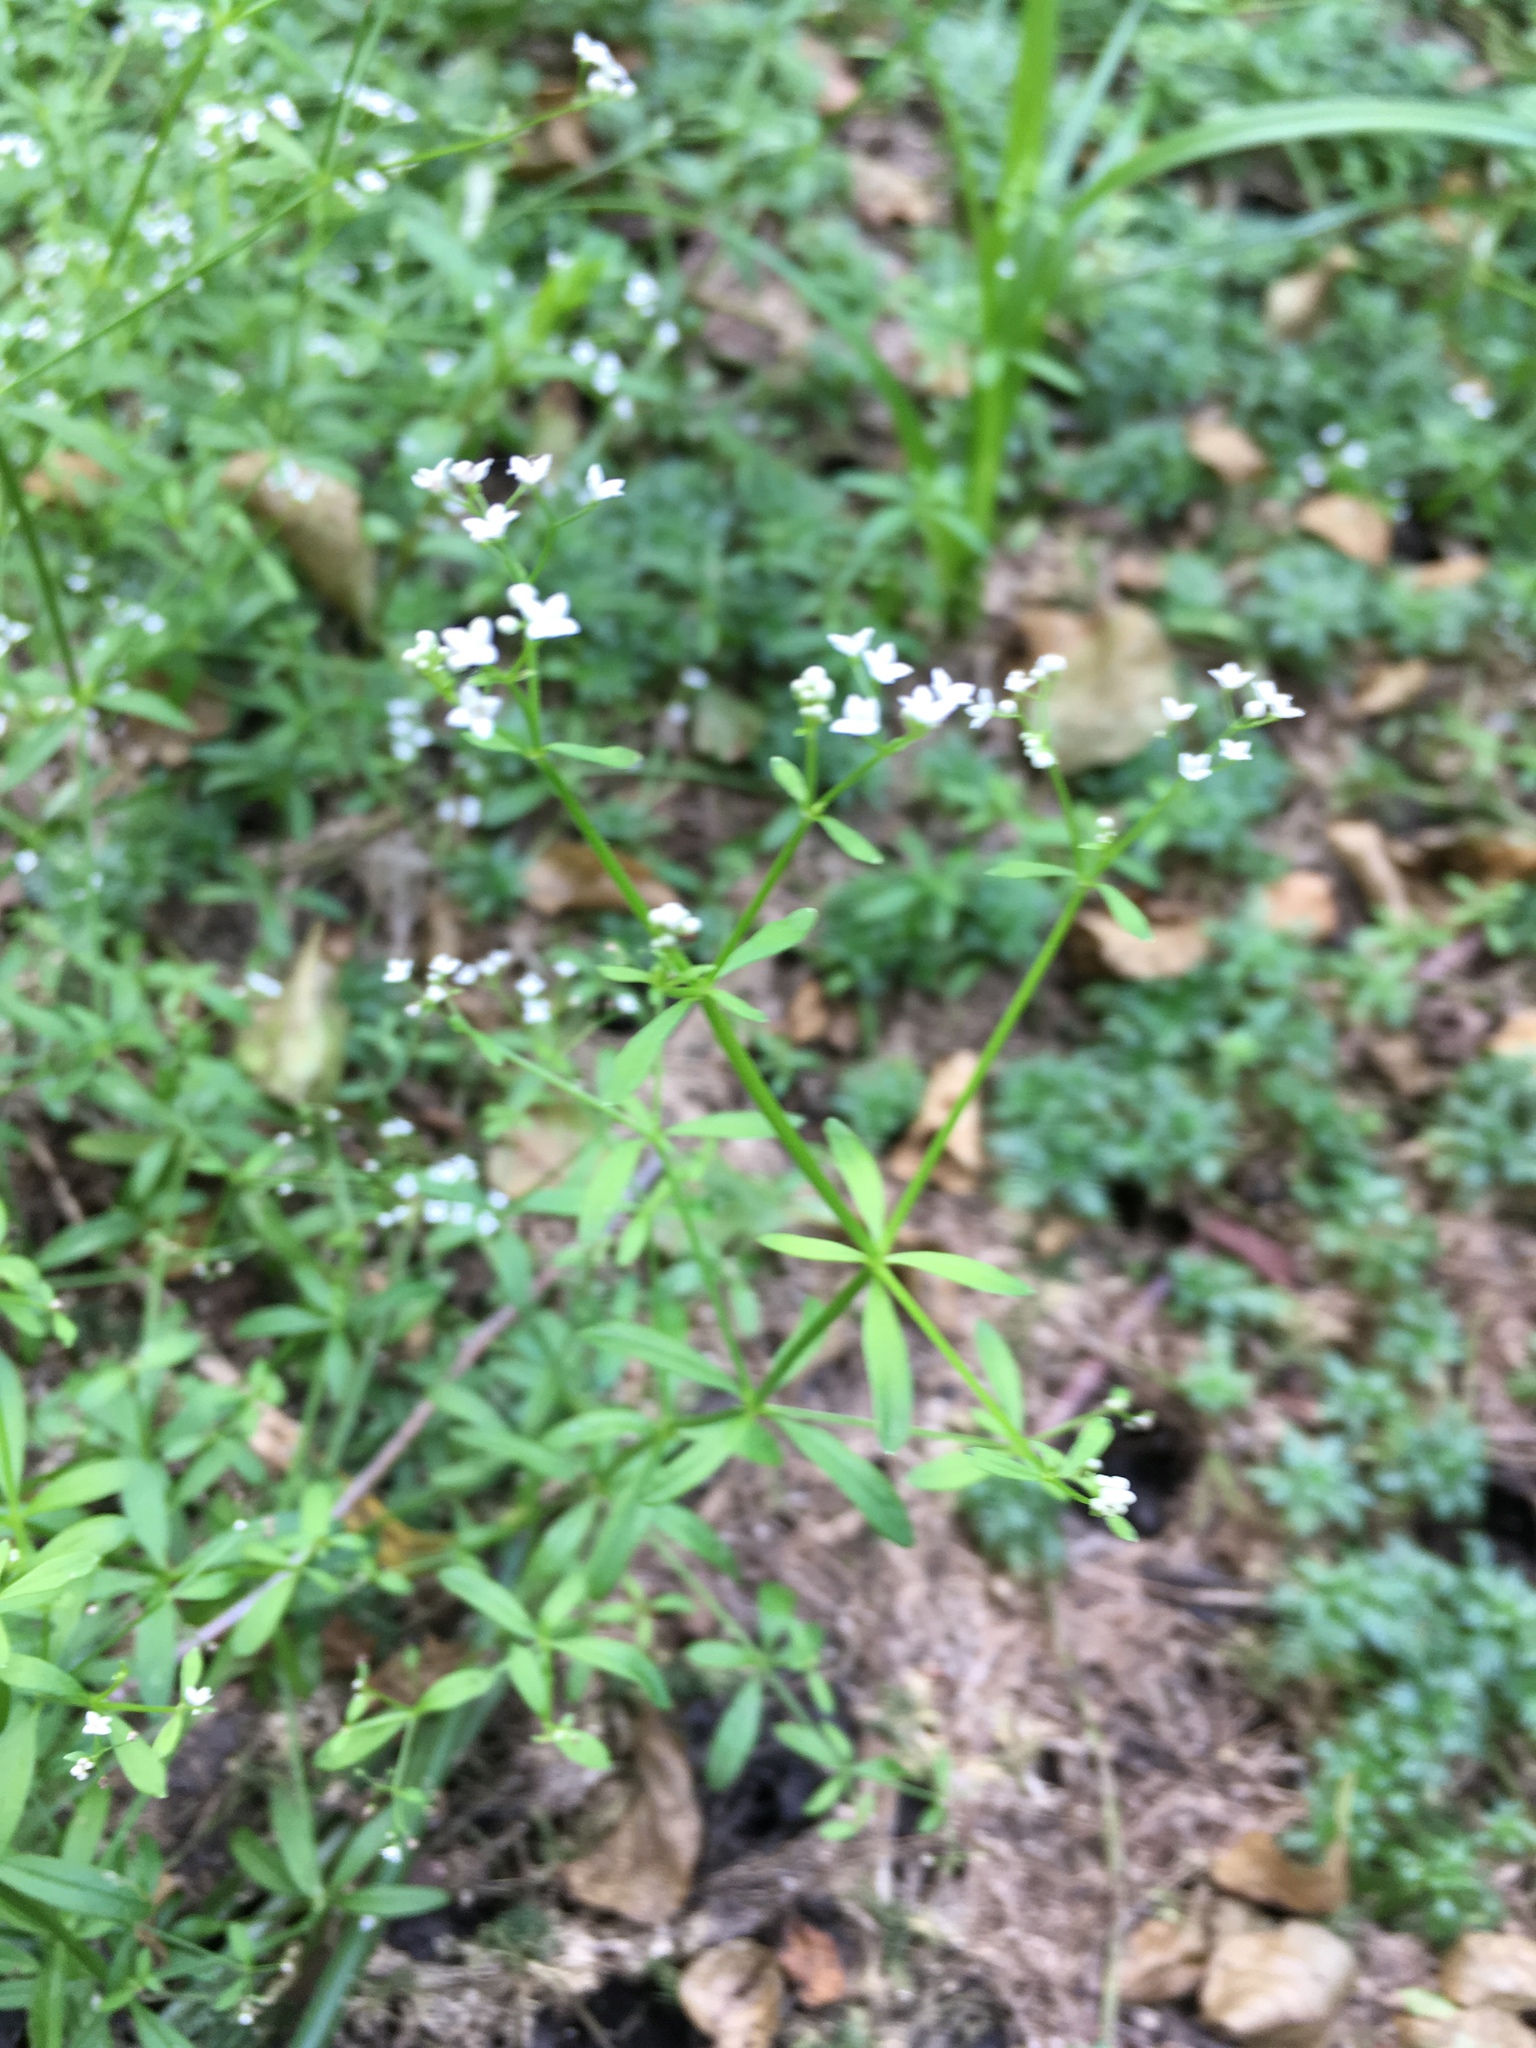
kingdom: Plantae
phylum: Tracheophyta
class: Magnoliopsida
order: Gentianales
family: Rubiaceae
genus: Galium
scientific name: Galium palustre
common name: Common marsh-bedstraw
